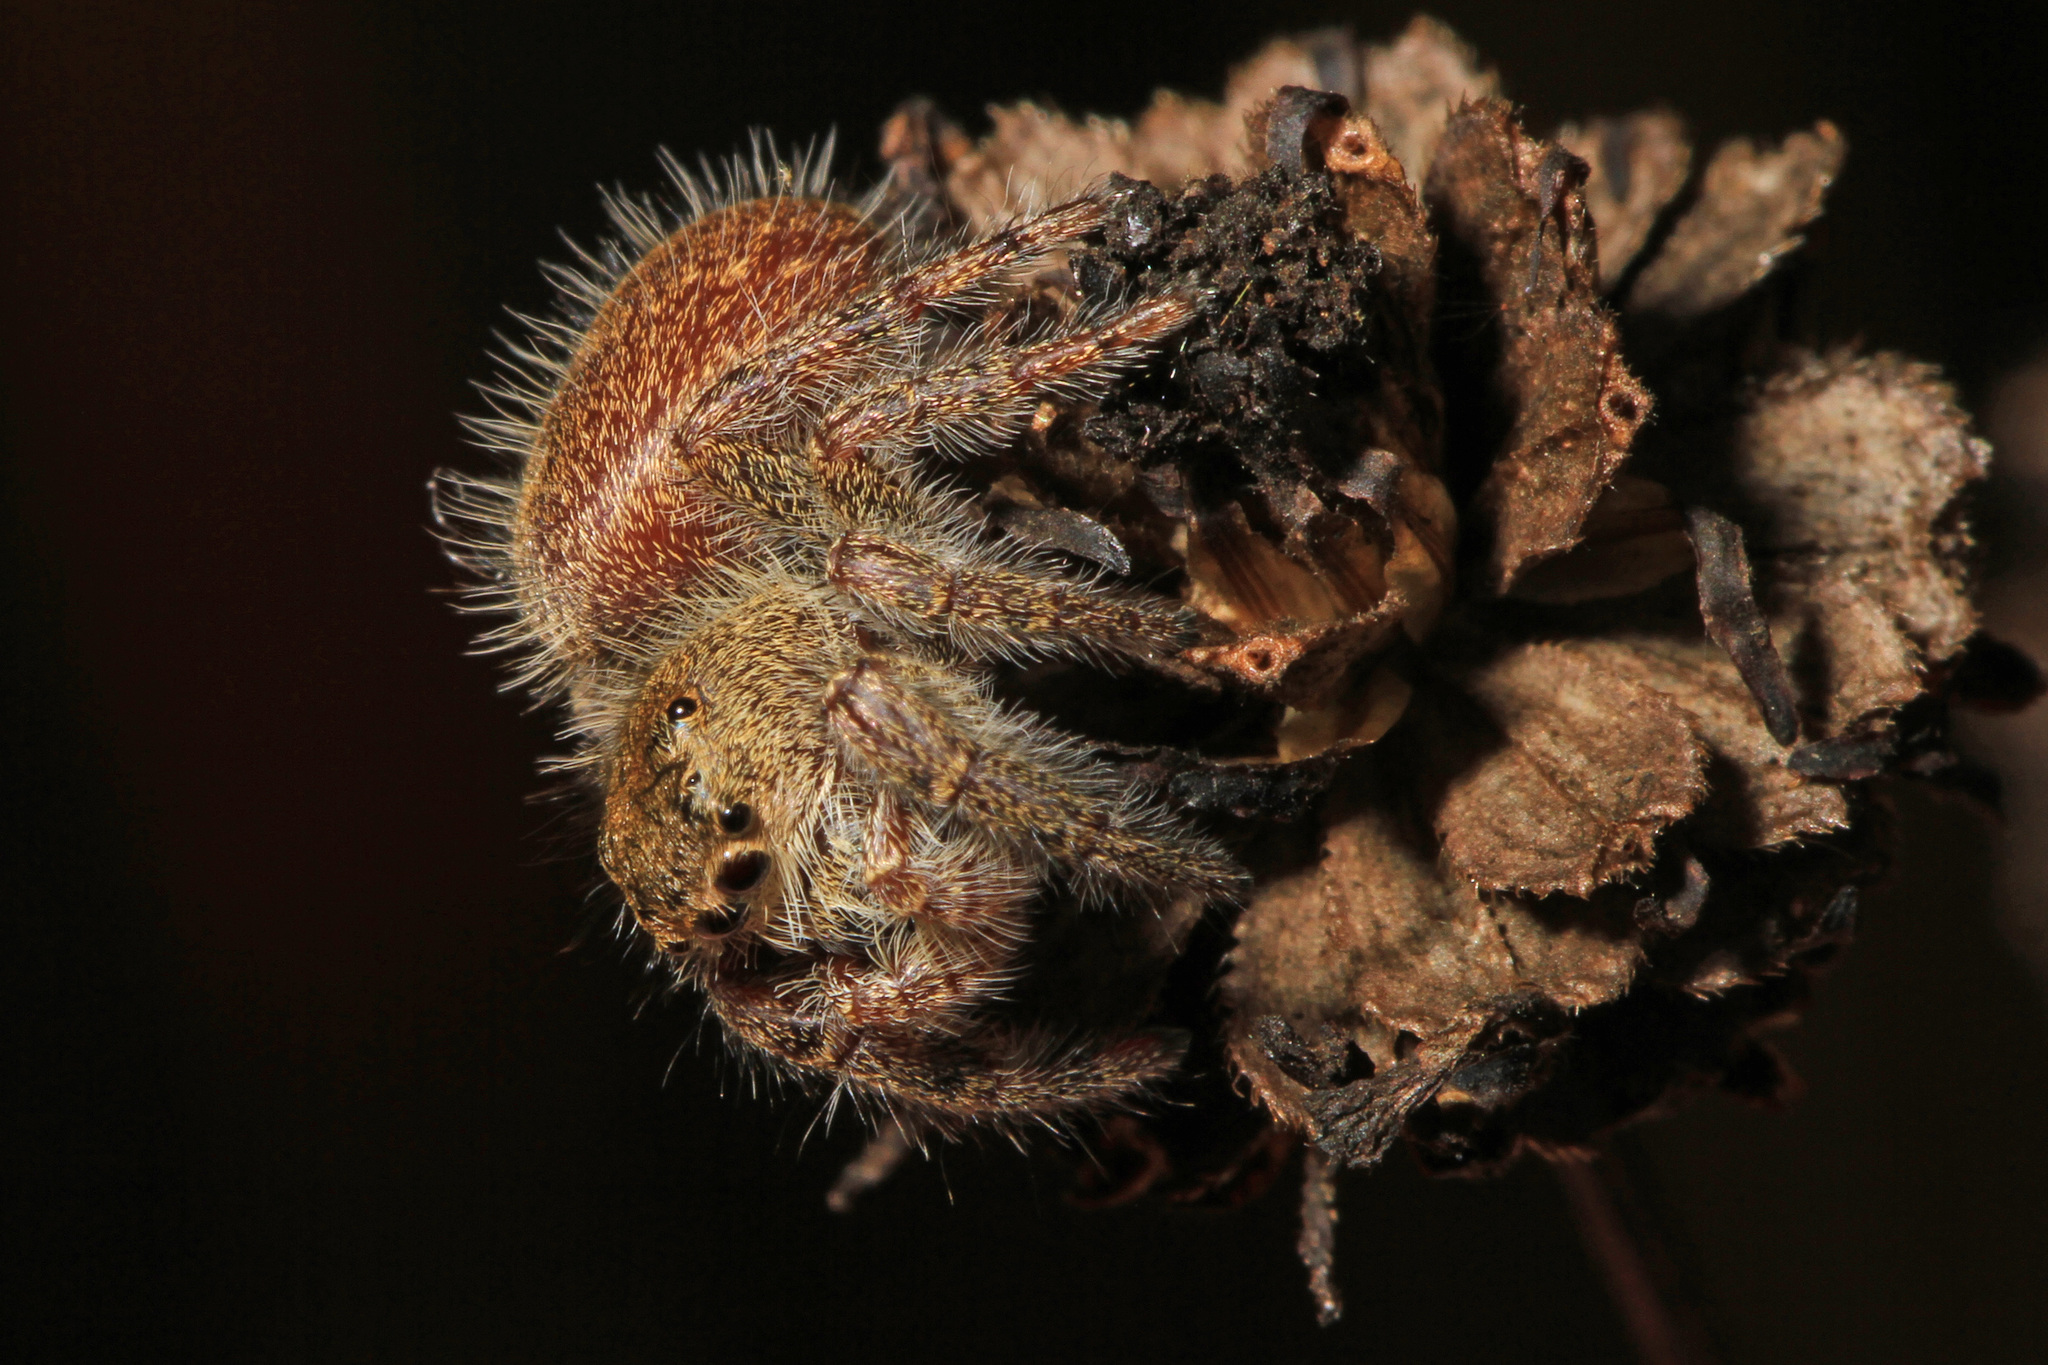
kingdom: Animalia
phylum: Arthropoda
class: Arachnida
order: Araneae
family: Salticidae
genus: Phidippus
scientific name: Phidippus princeps
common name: Grayish jumping spider
